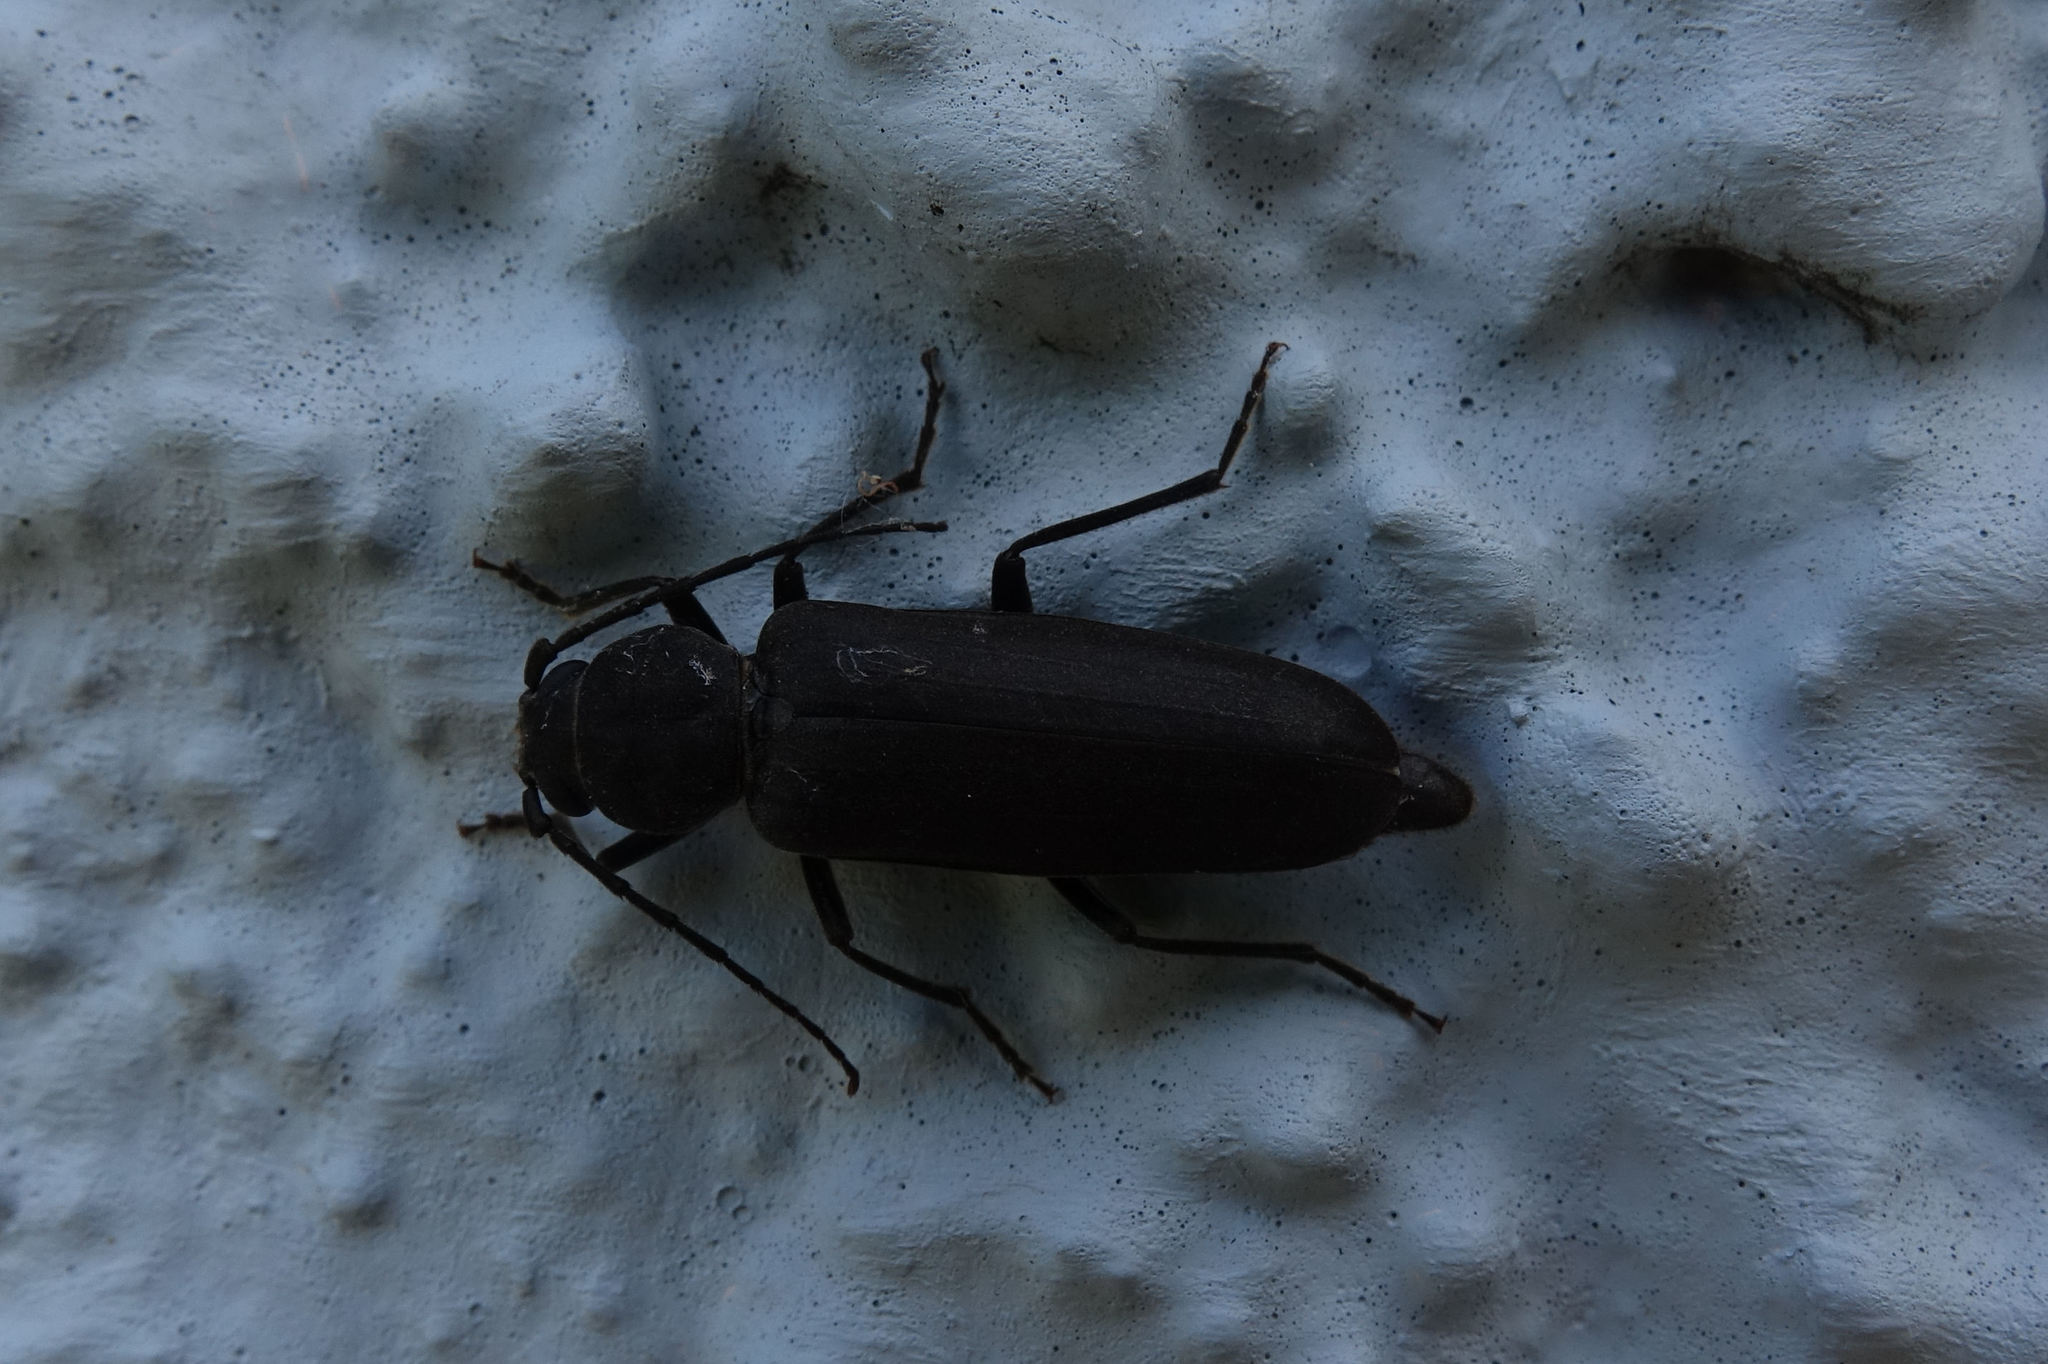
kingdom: Animalia
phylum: Arthropoda
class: Insecta
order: Coleoptera
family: Cerambycidae
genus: Arhopalus
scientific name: Arhopalus ferus
